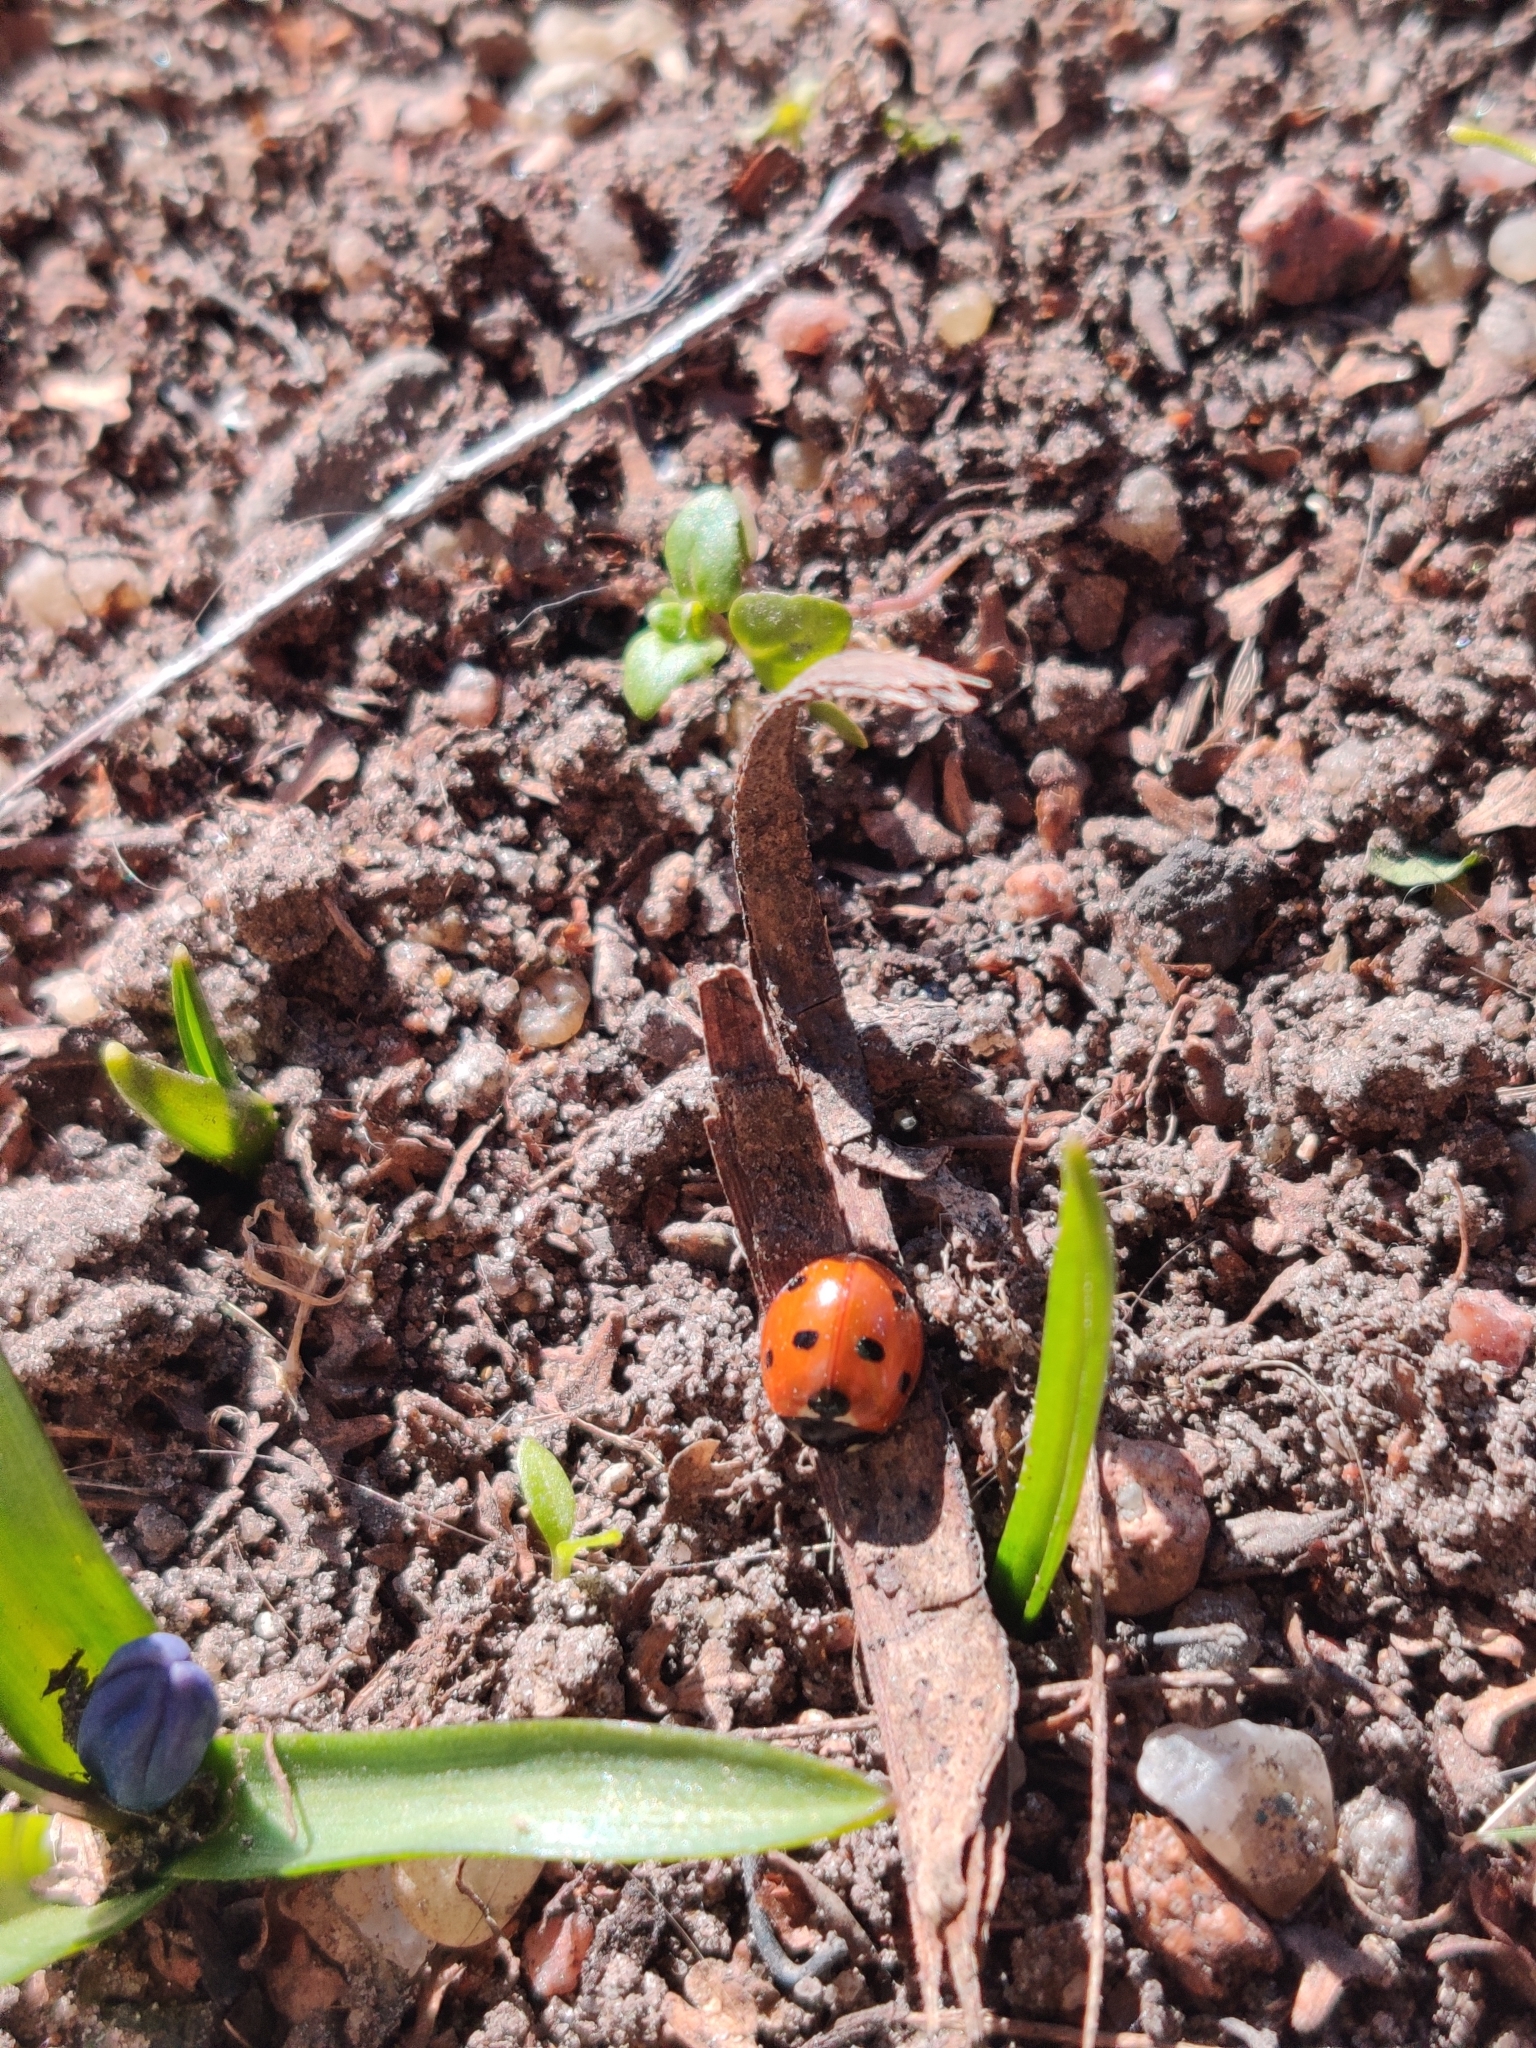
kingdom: Animalia
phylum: Arthropoda
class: Insecta
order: Coleoptera
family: Coccinellidae
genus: Coccinella
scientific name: Coccinella septempunctata
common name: Sevenspotted lady beetle
